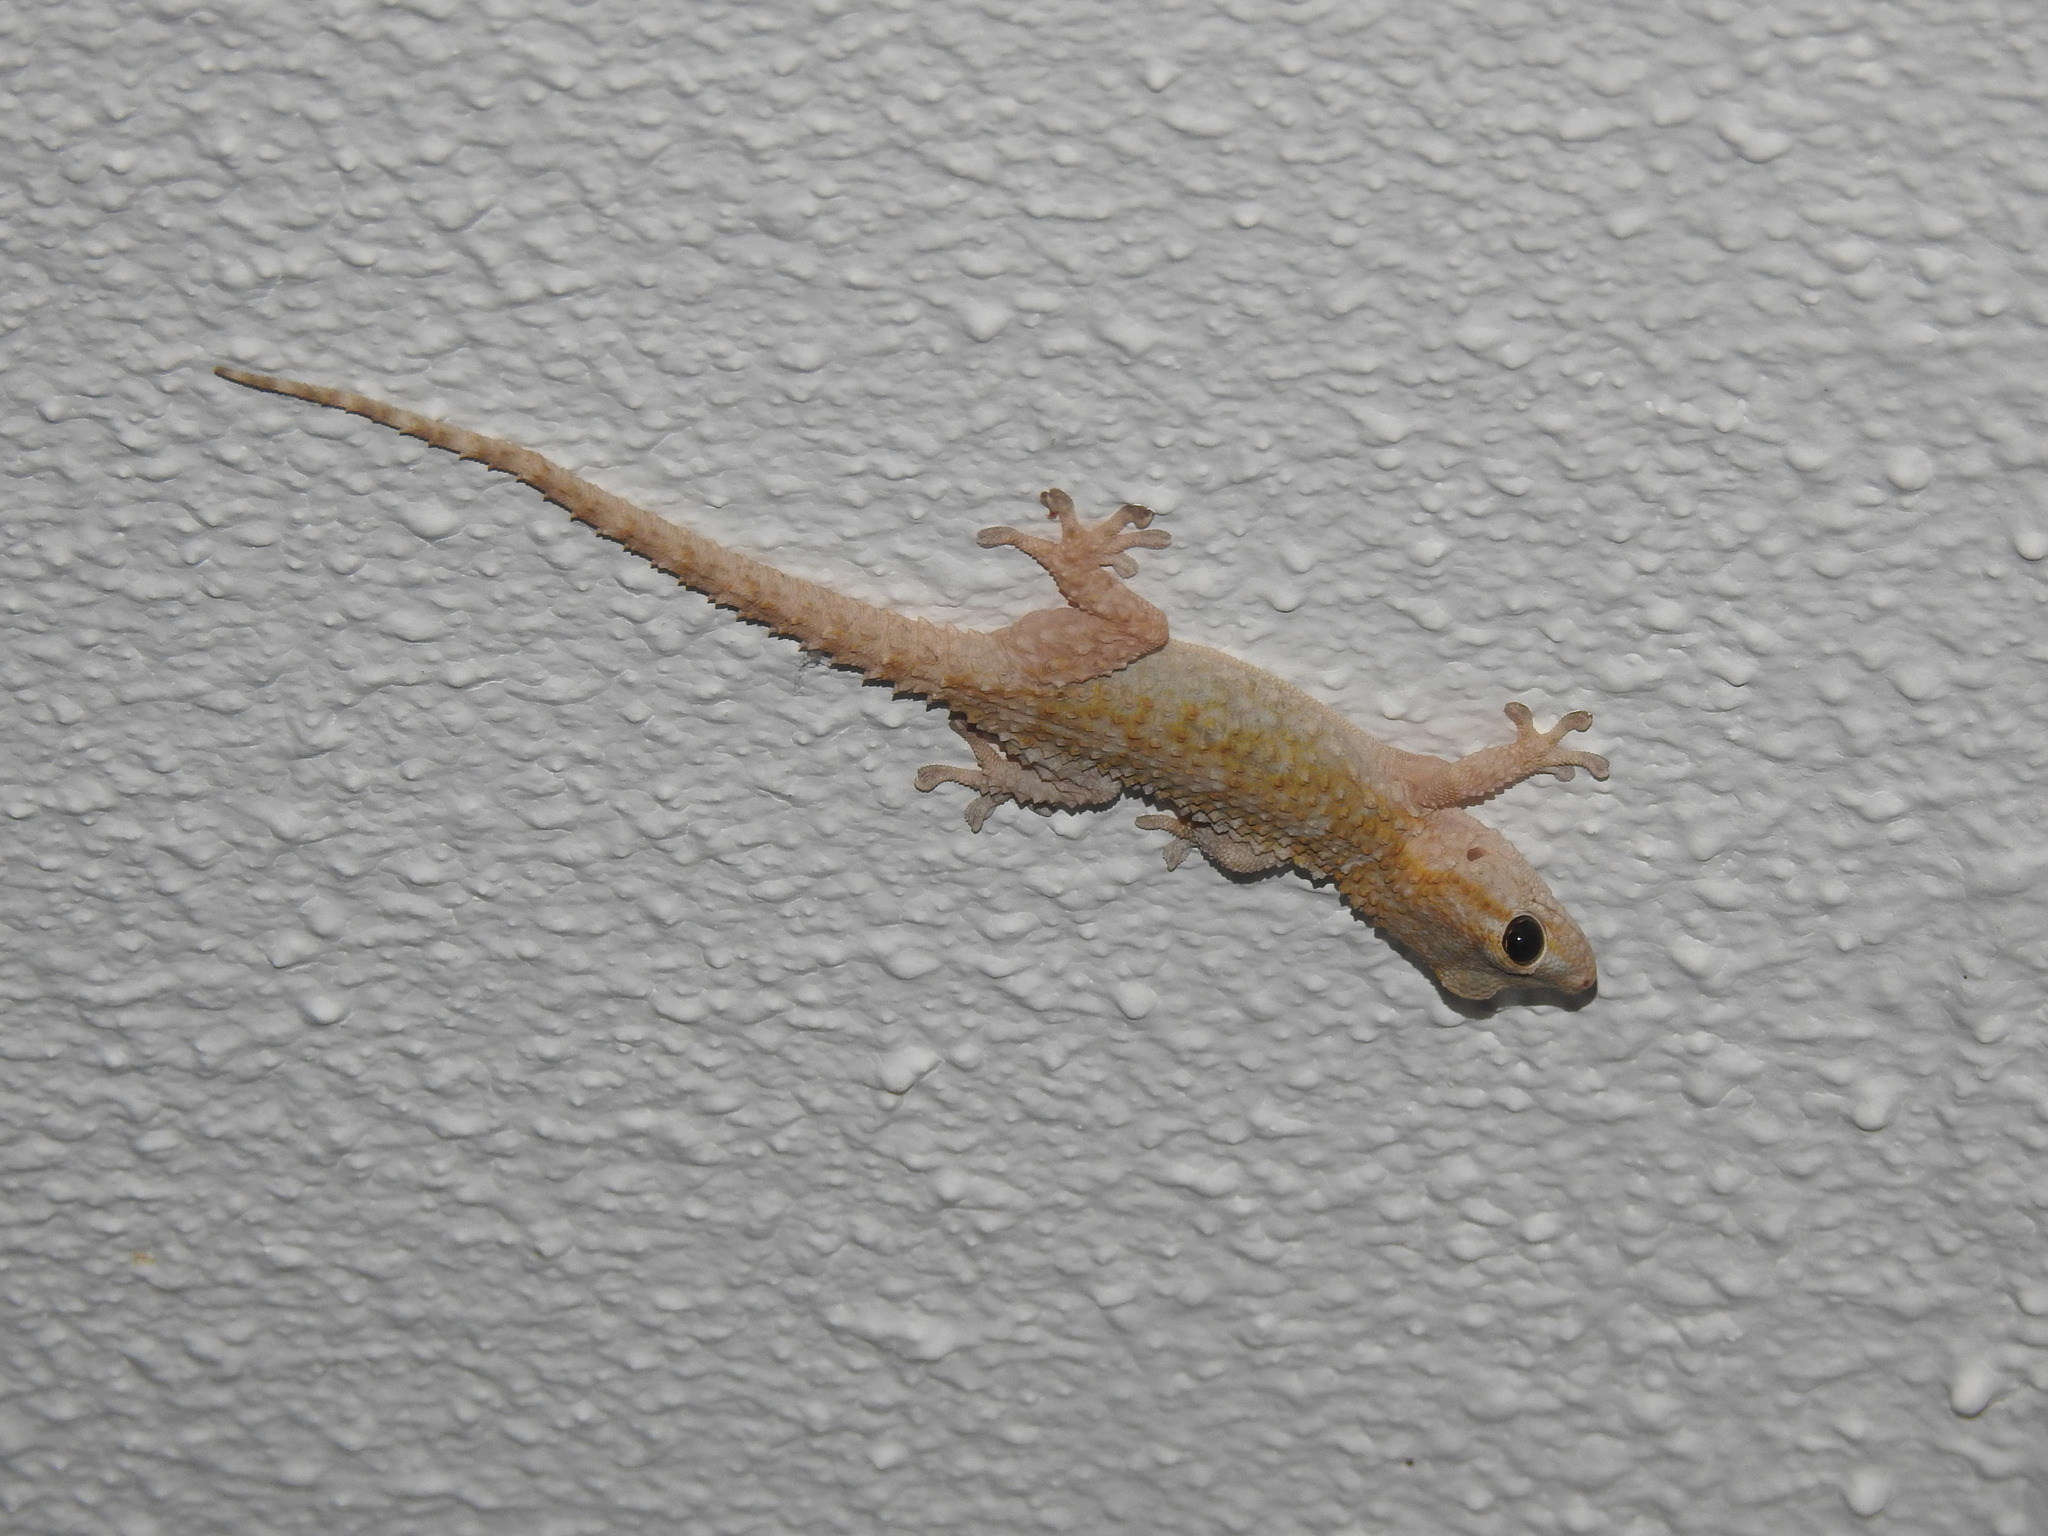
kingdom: Animalia
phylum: Chordata
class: Squamata
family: Phyllodactylidae
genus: Tarentola
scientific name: Tarentola mauritanica
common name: Moorish gecko
